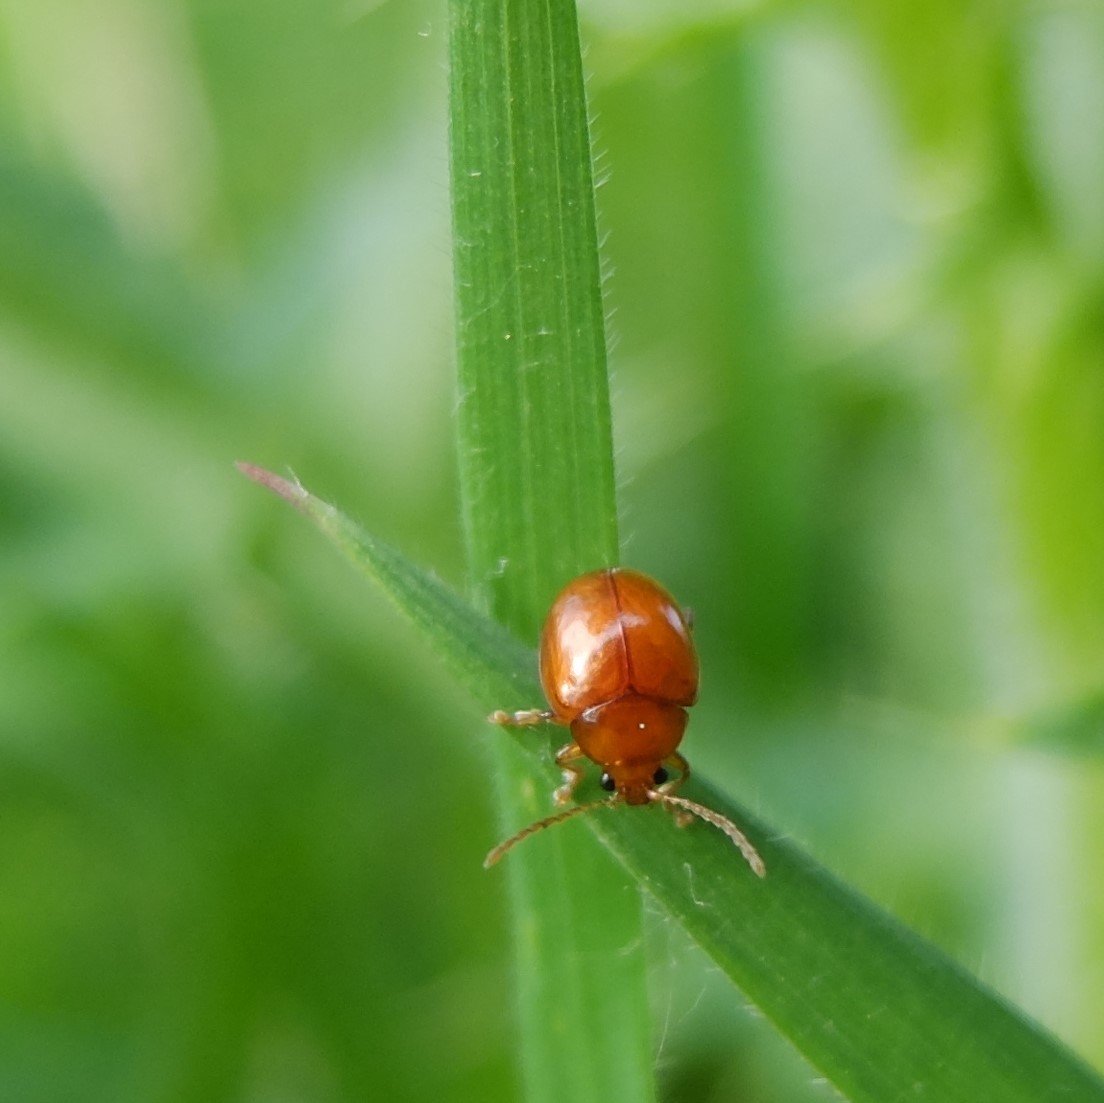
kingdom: Animalia
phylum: Arthropoda
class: Insecta
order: Coleoptera
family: Chrysomelidae
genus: Pistosia
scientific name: Pistosia testacea
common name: Leaf beetle
